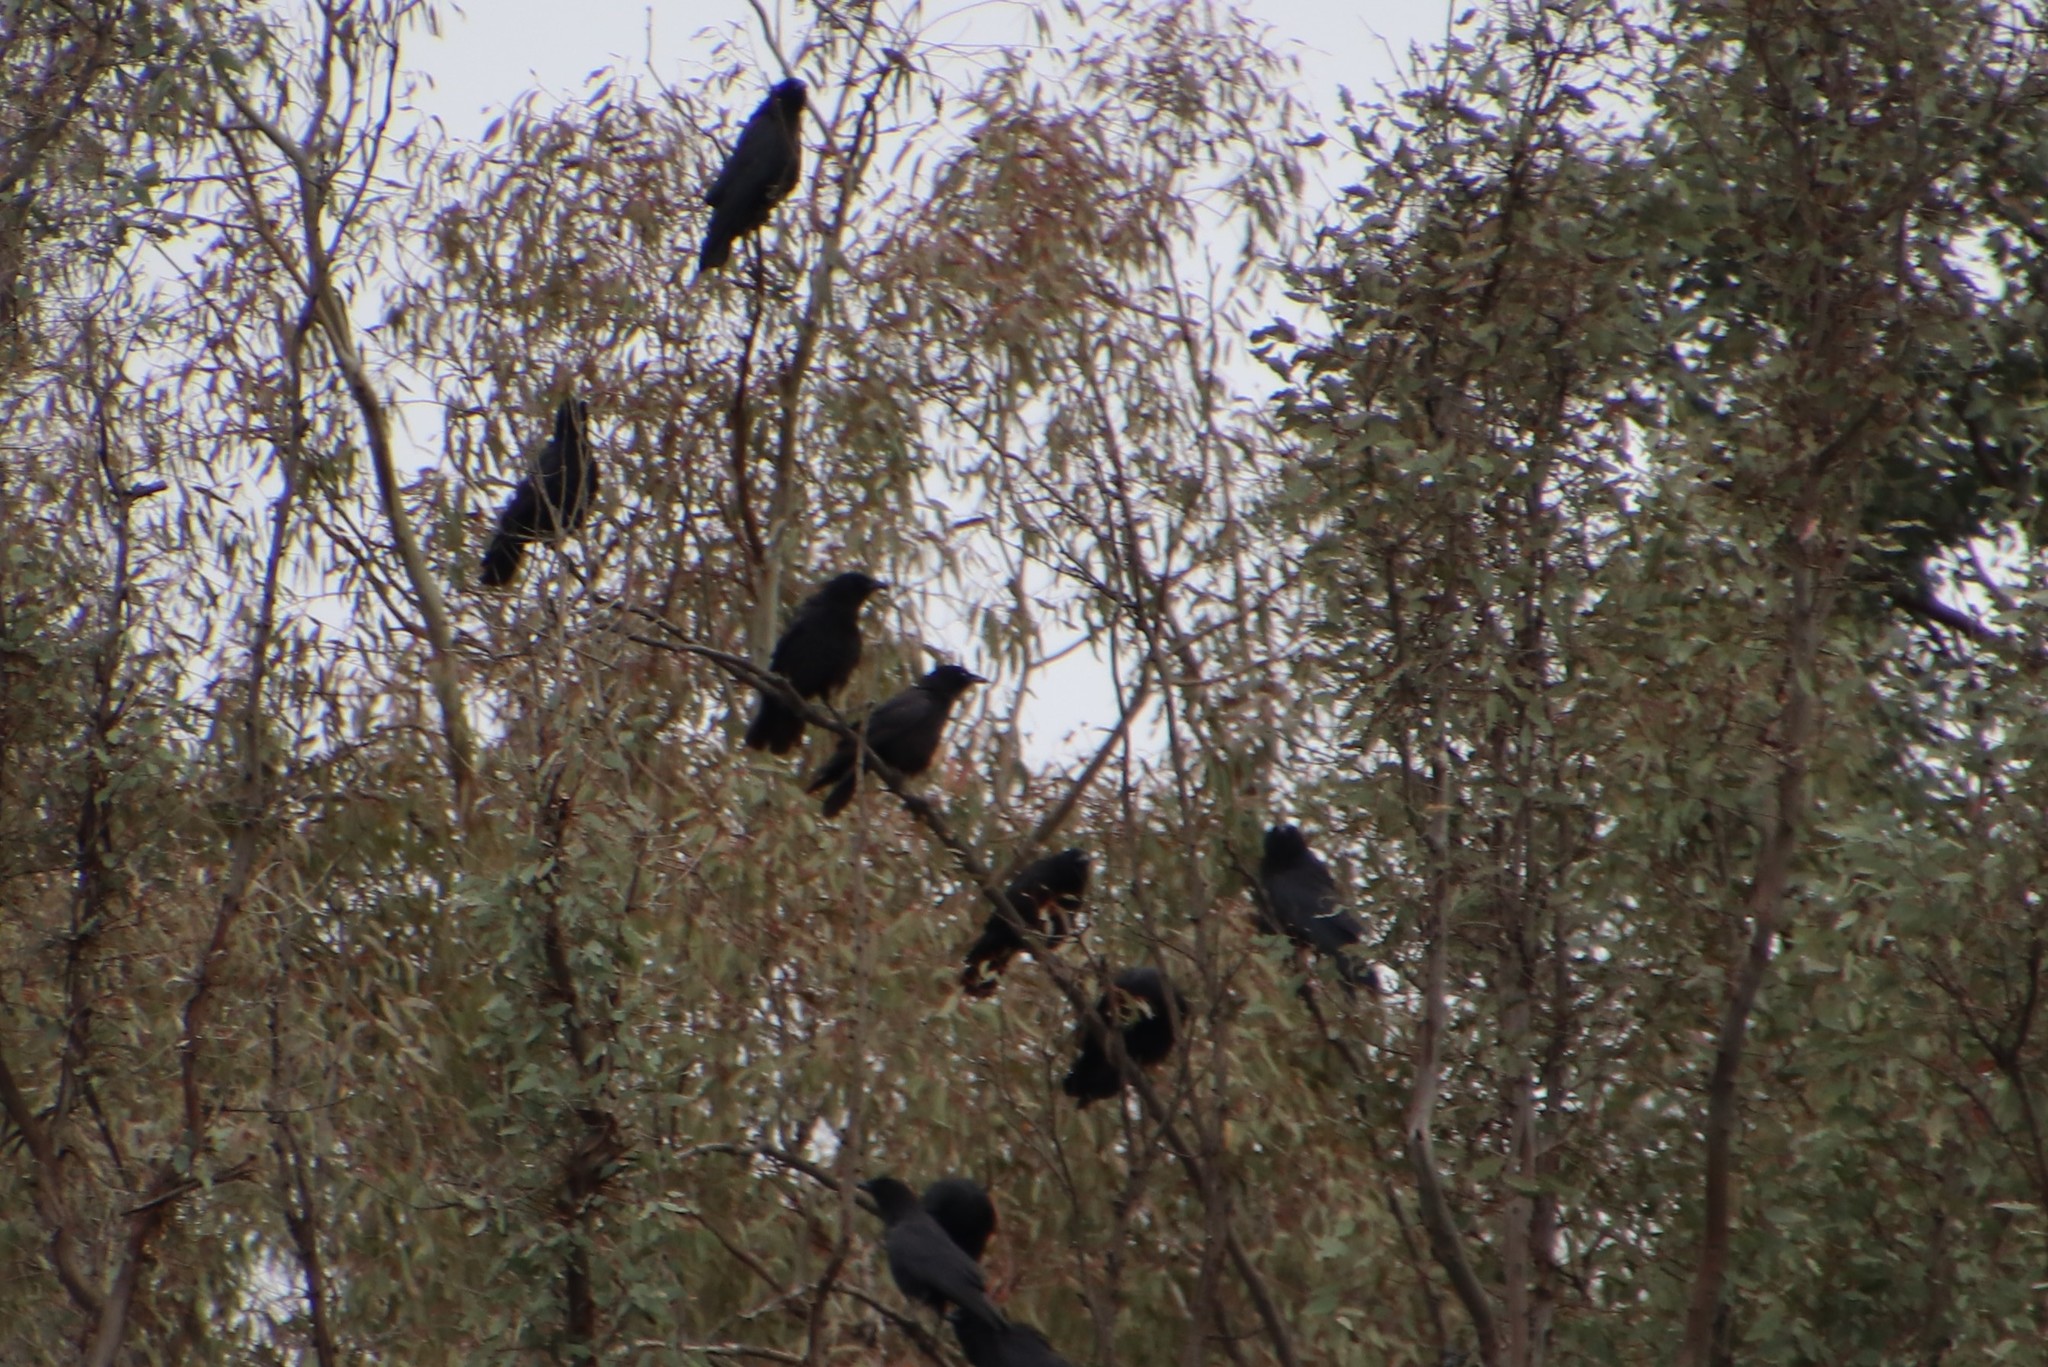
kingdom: Animalia
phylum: Chordata
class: Aves
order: Passeriformes
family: Corvidae
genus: Corvus
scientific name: Corvus brachyrhynchos
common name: American crow
